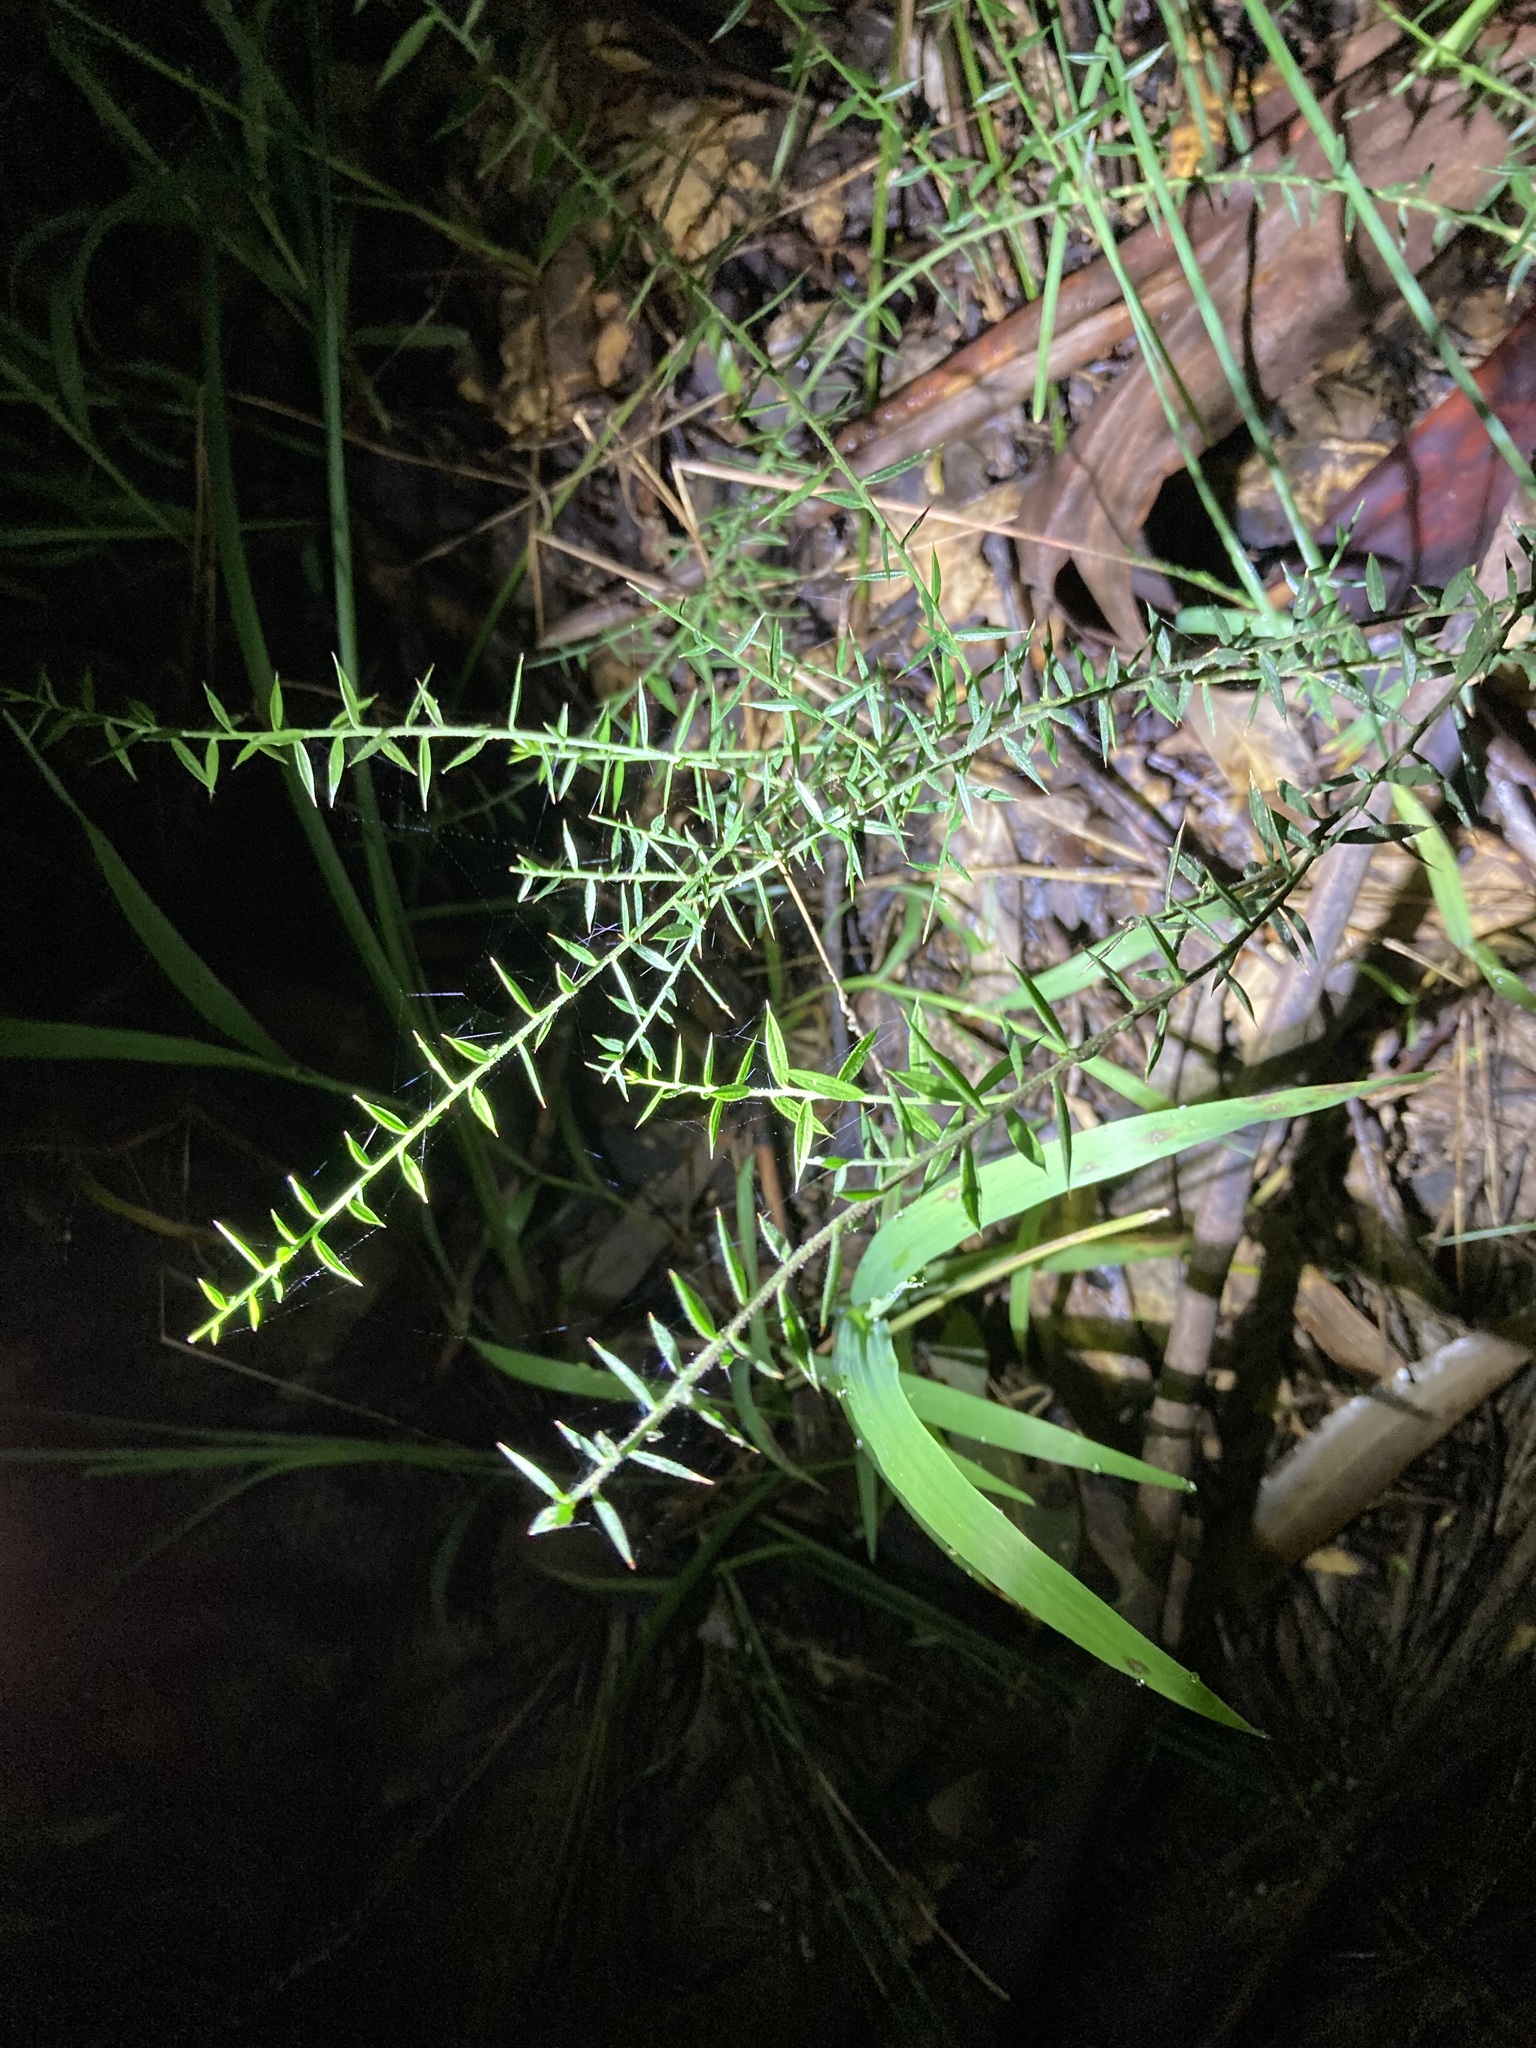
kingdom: Plantae
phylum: Tracheophyta
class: Magnoliopsida
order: Fabales
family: Fabaceae
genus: Daviesia
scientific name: Daviesia ulicifolia
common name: Gorse bitter-pea
